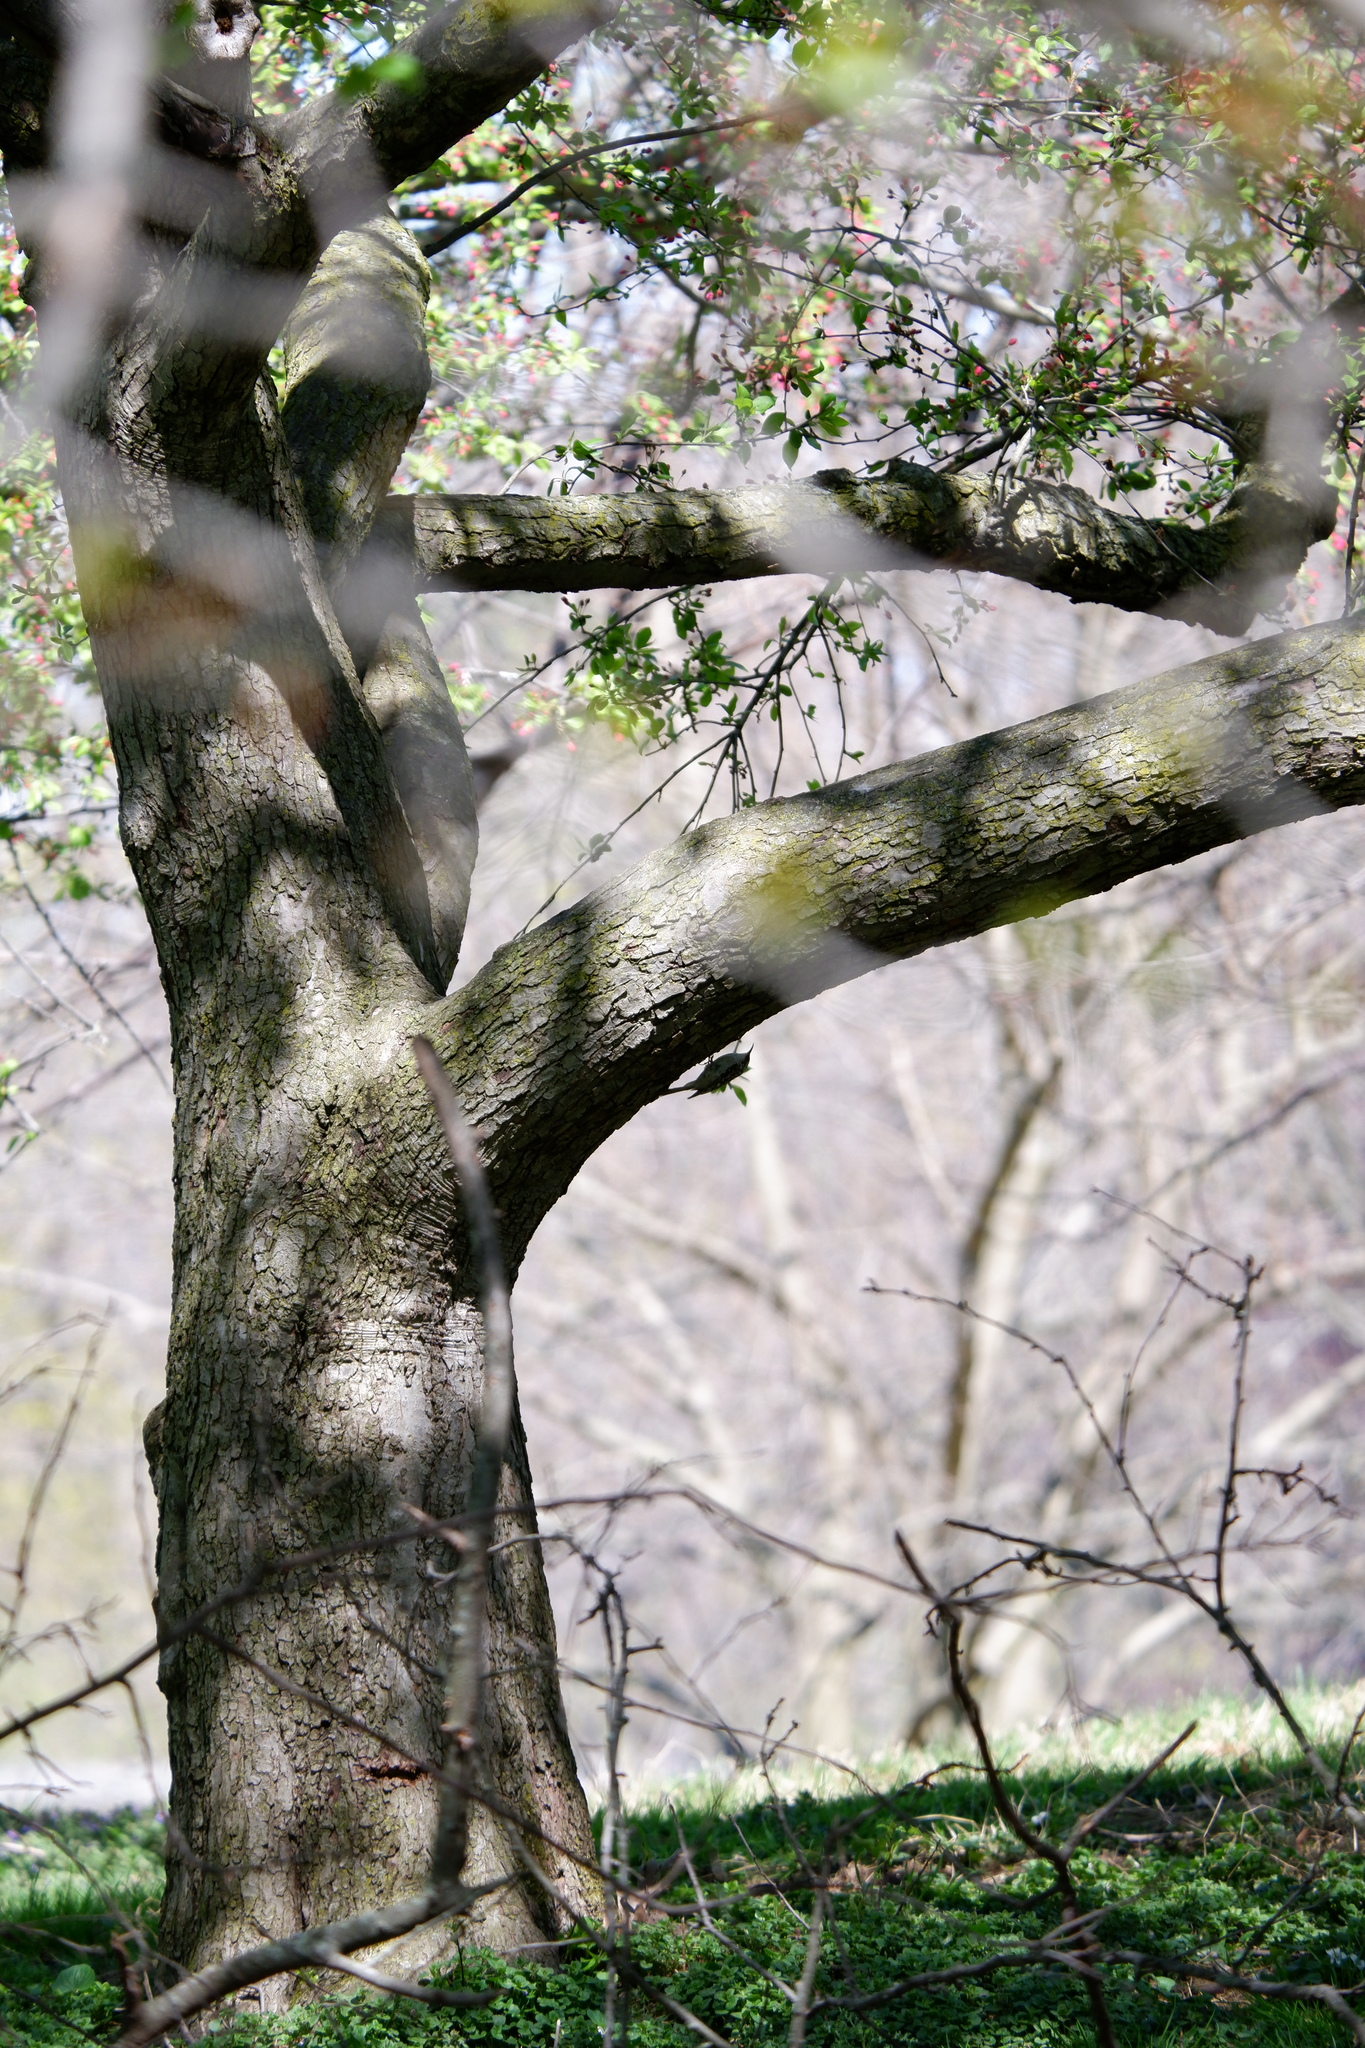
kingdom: Animalia
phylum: Chordata
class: Aves
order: Passeriformes
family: Certhiidae
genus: Certhia
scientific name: Certhia americana
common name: Brown creeper
